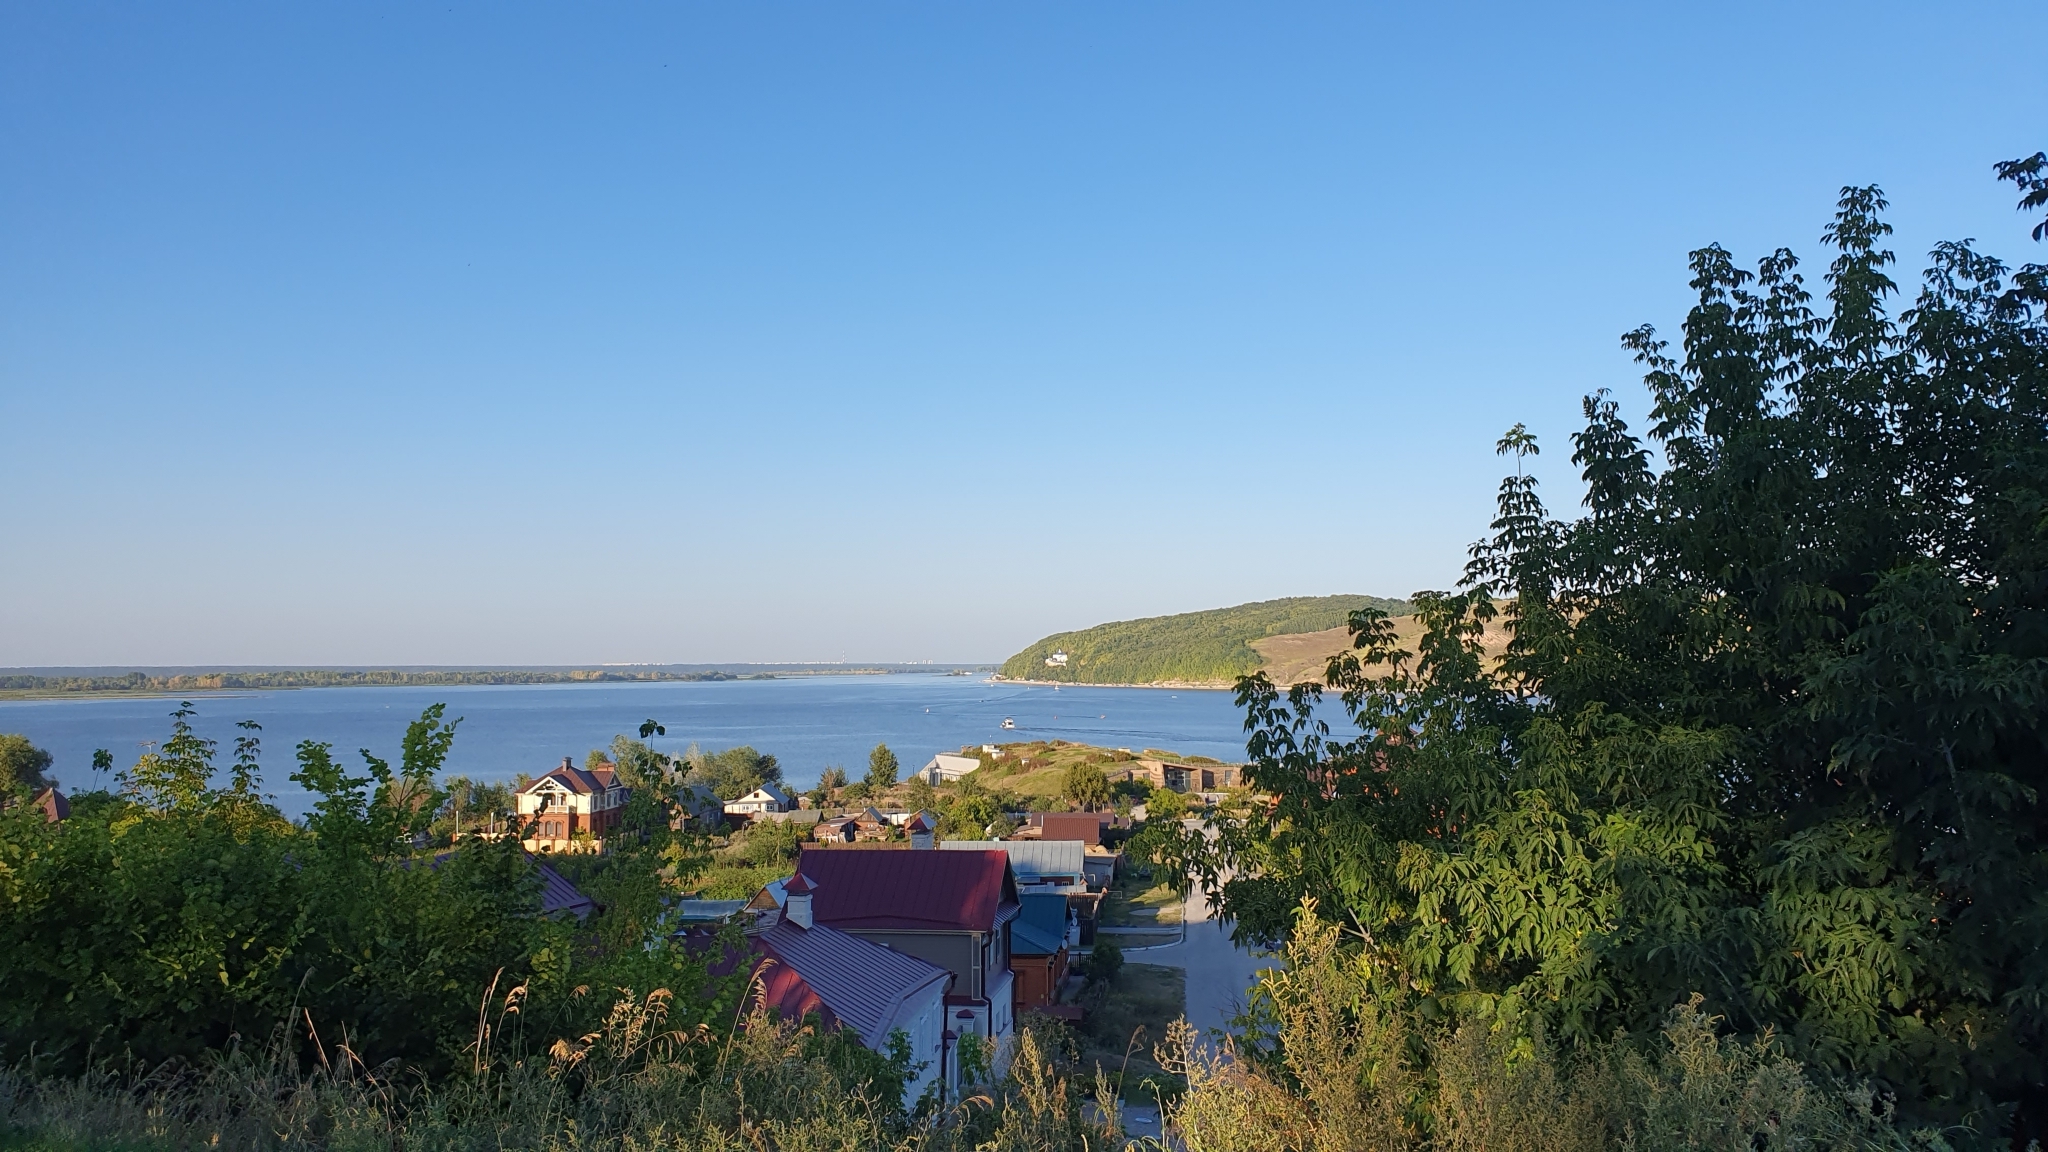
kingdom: Plantae
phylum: Tracheophyta
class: Magnoliopsida
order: Sapindales
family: Sapindaceae
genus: Acer
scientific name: Acer negundo
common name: Ashleaf maple
